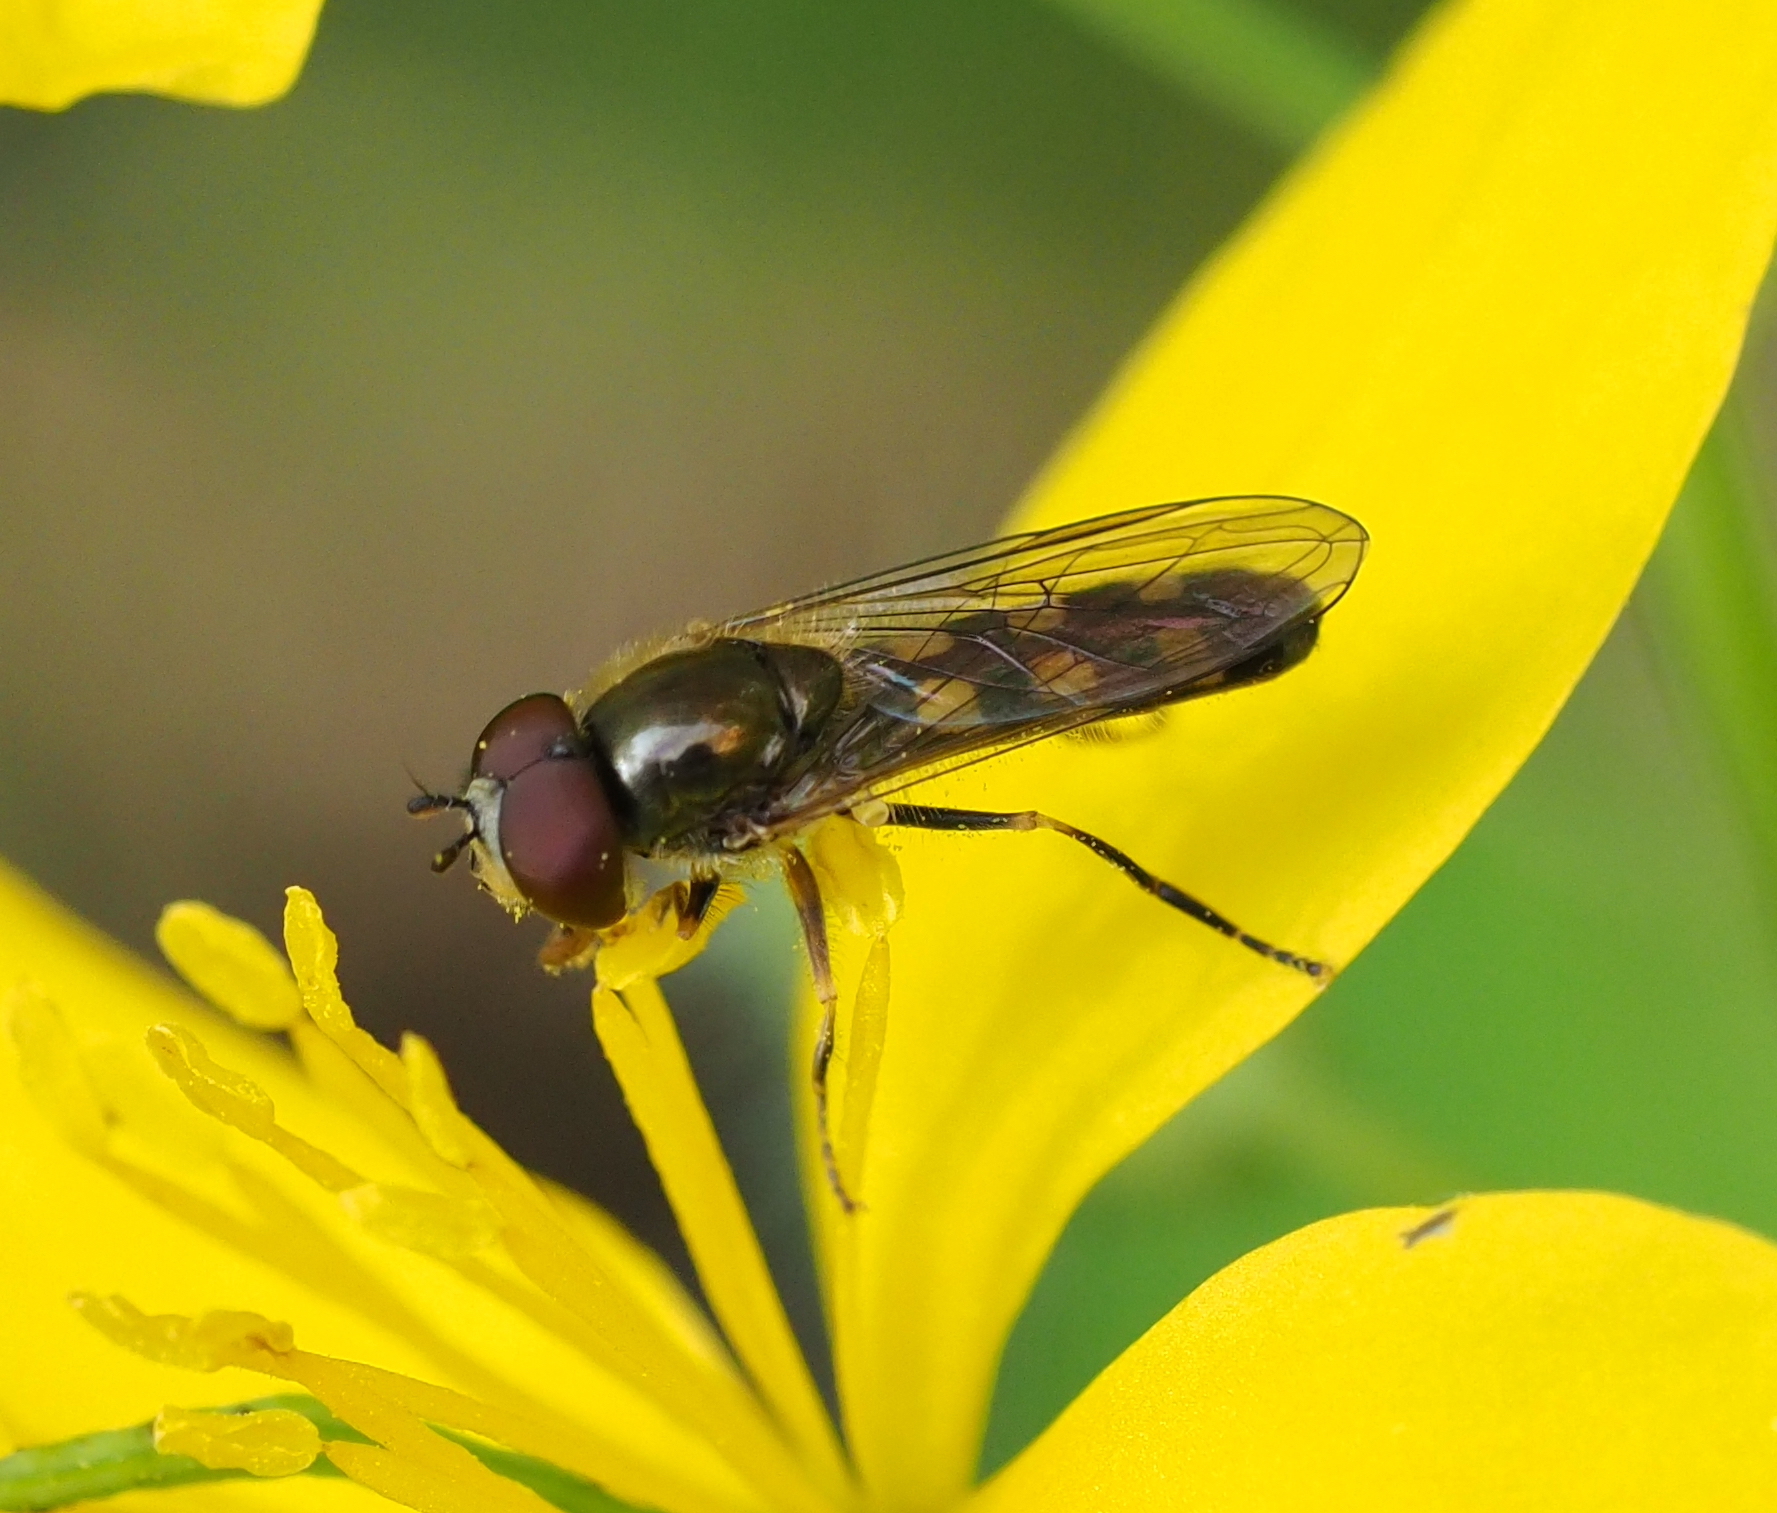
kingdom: Animalia
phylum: Arthropoda
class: Insecta
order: Diptera
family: Syrphidae
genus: Platycheirus
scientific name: Platycheirus scutatus
